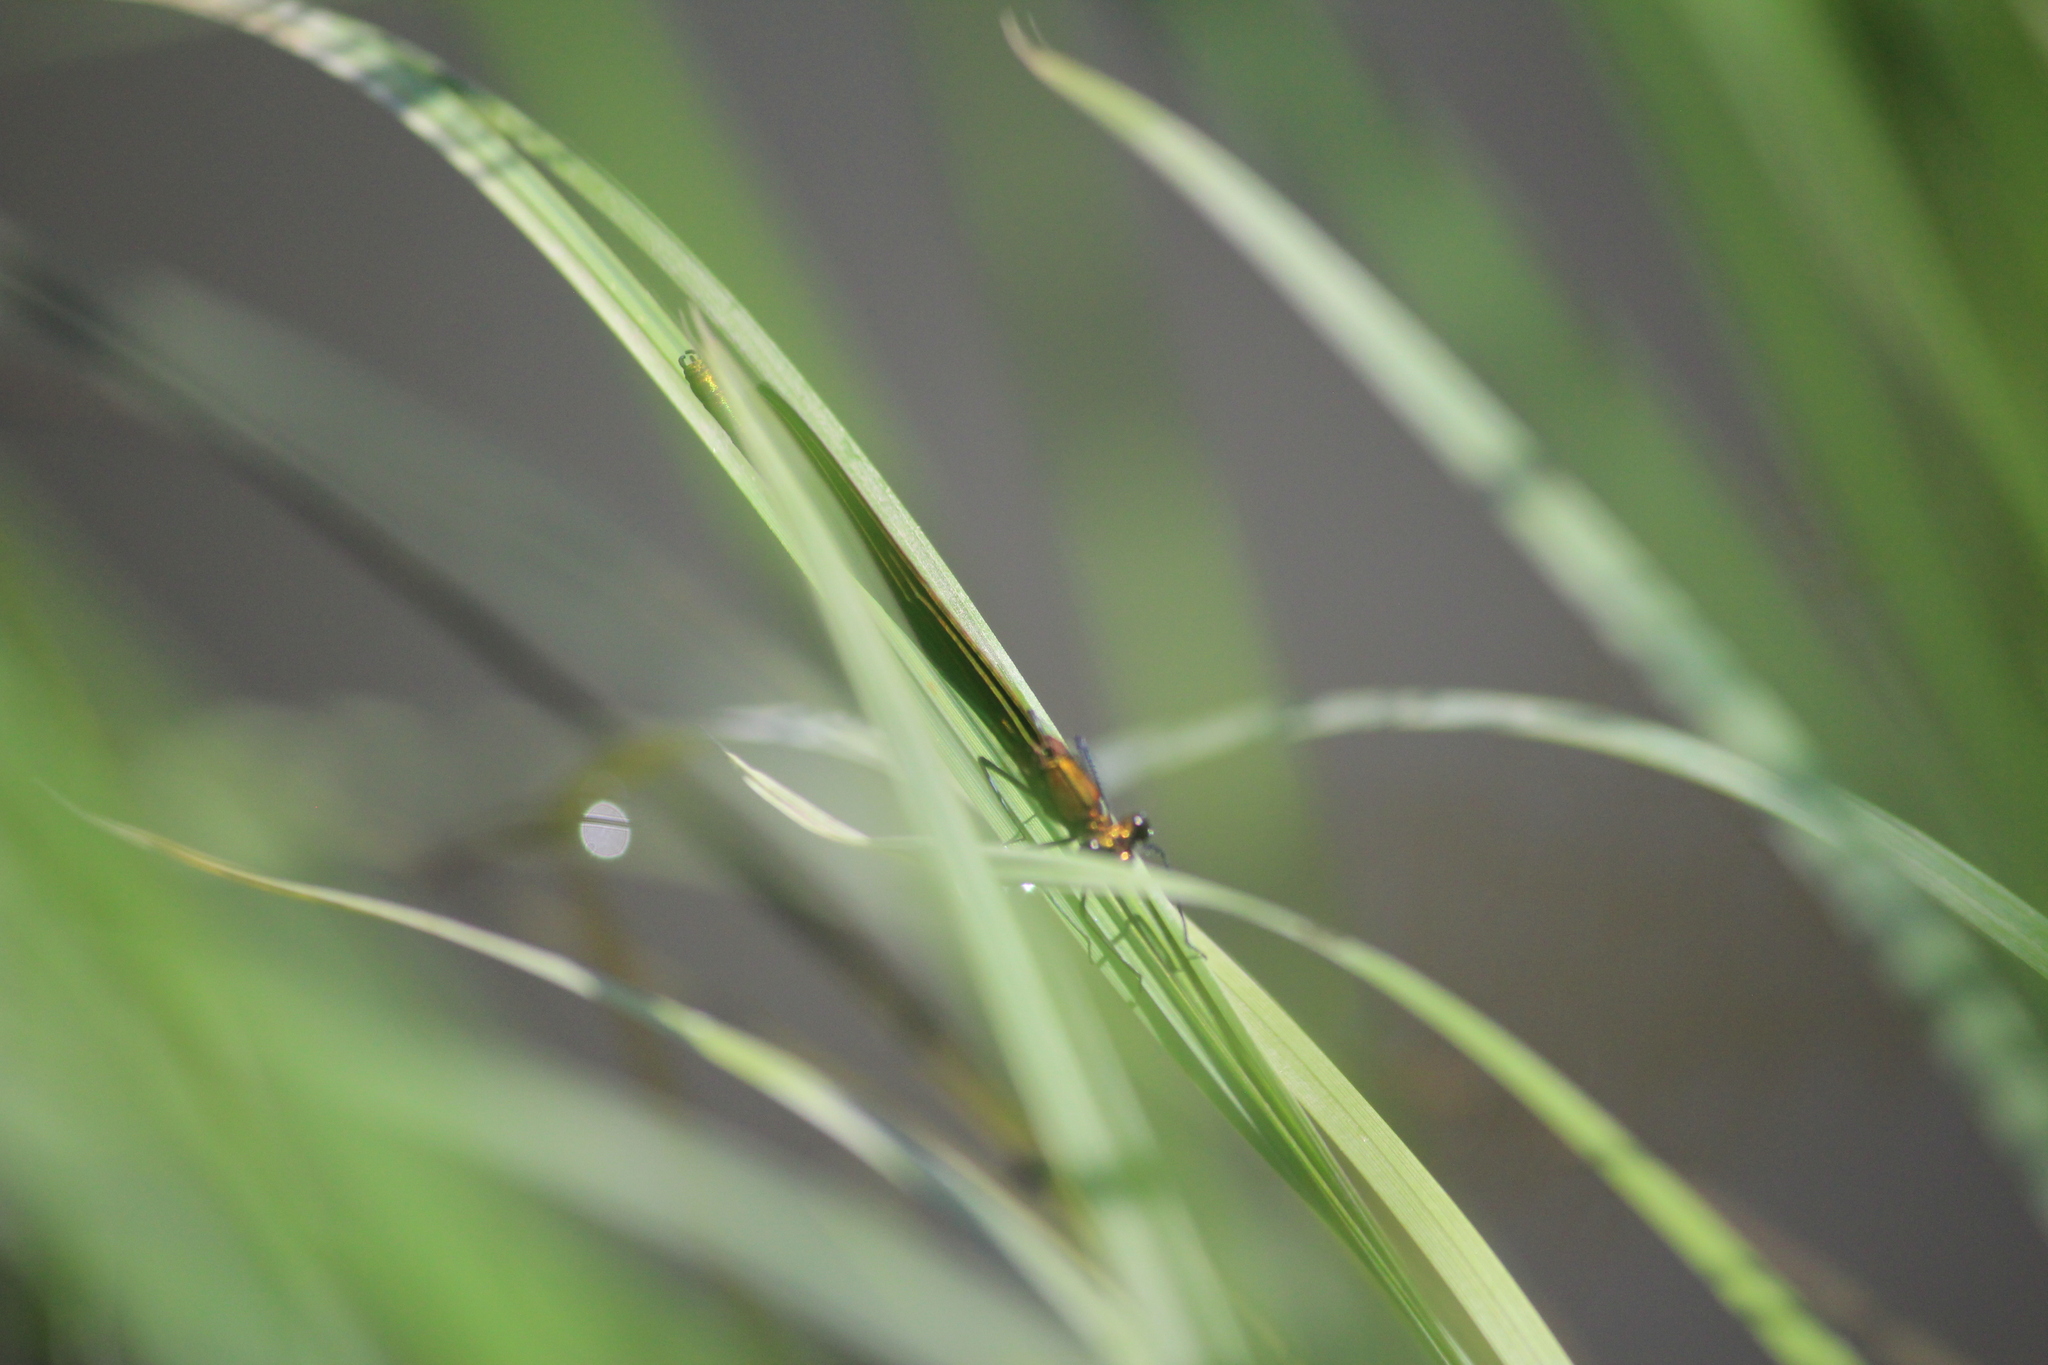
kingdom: Animalia
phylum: Arthropoda
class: Insecta
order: Odonata
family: Calopterygidae
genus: Calopteryx
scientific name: Calopteryx japonica
